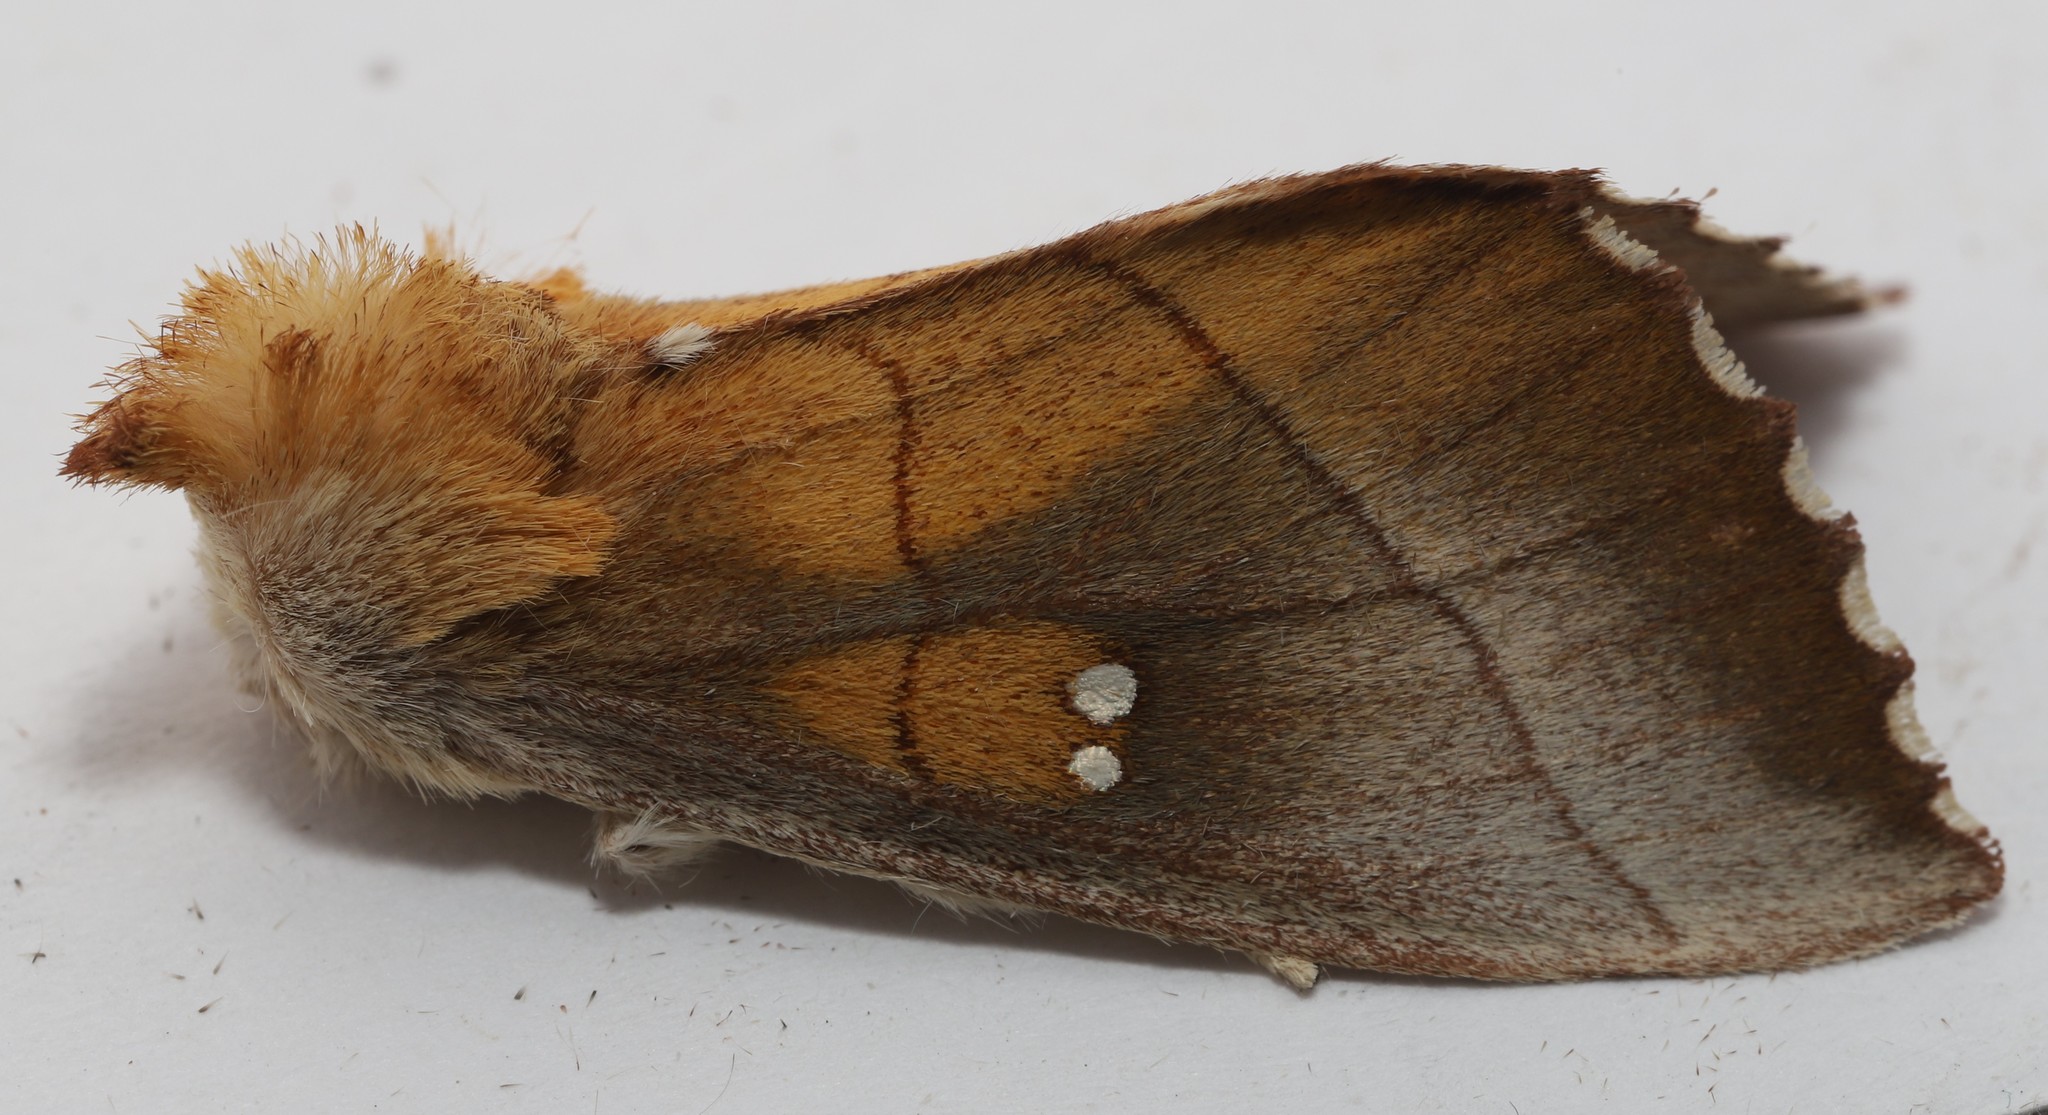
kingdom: Animalia
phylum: Arthropoda
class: Insecta
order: Lepidoptera
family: Notodontidae
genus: Nadata
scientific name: Nadata gibbosa
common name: White-dotted prominent
